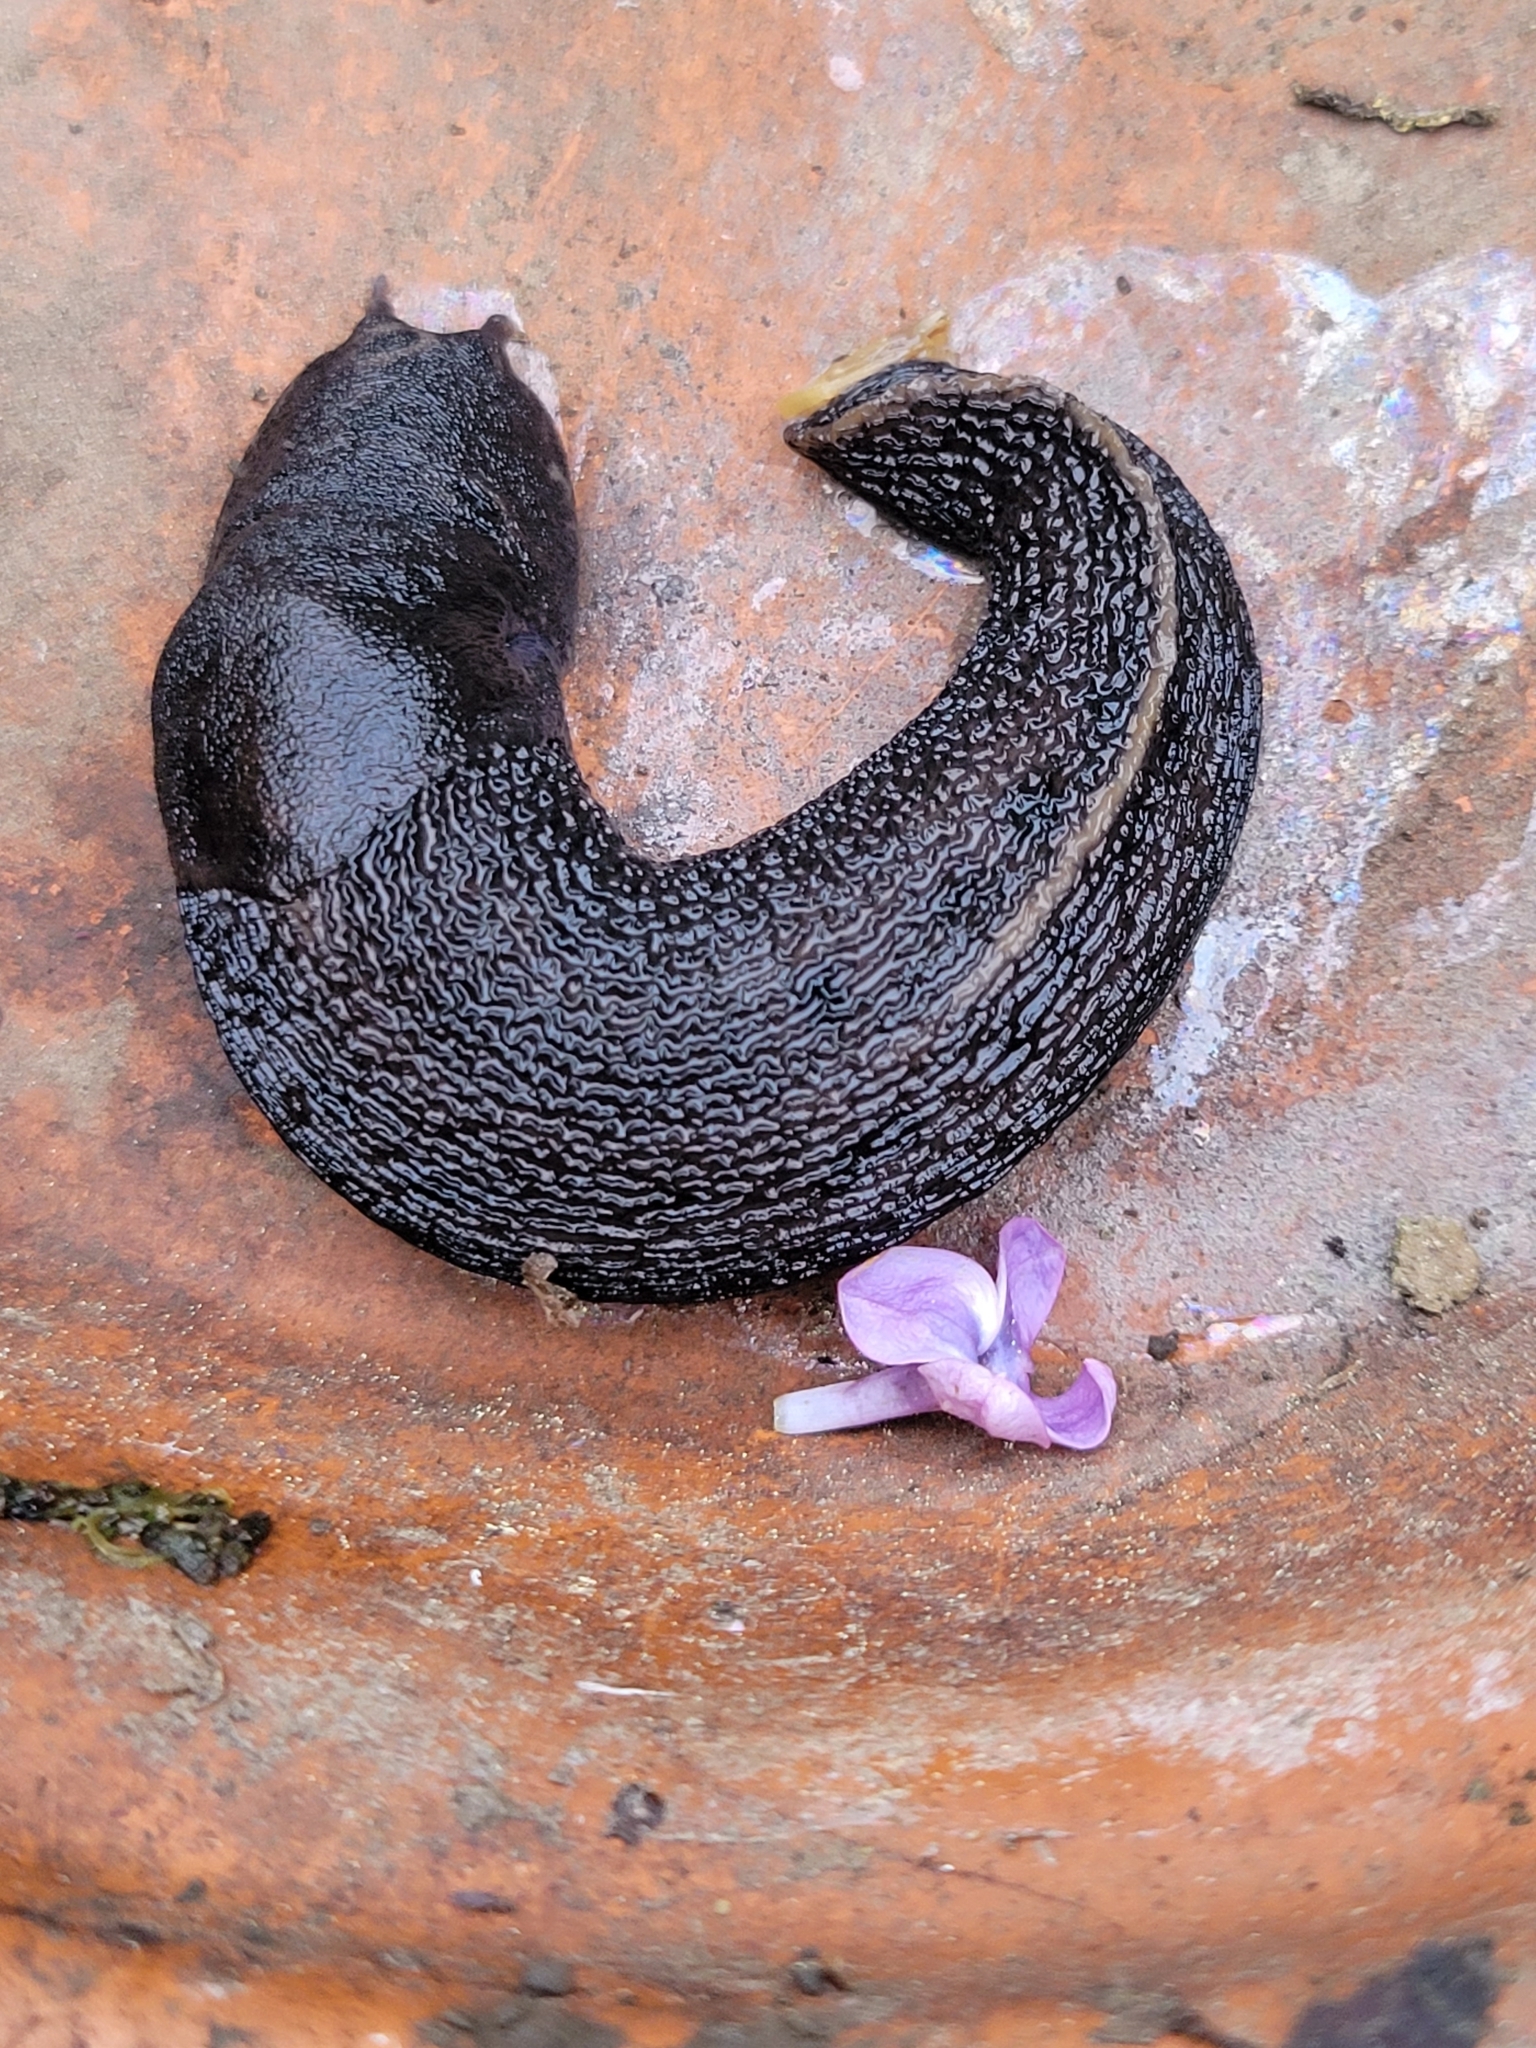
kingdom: Animalia
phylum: Mollusca
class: Gastropoda
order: Stylommatophora
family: Limacidae
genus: Limax
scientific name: Limax maximus
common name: Great grey slug
